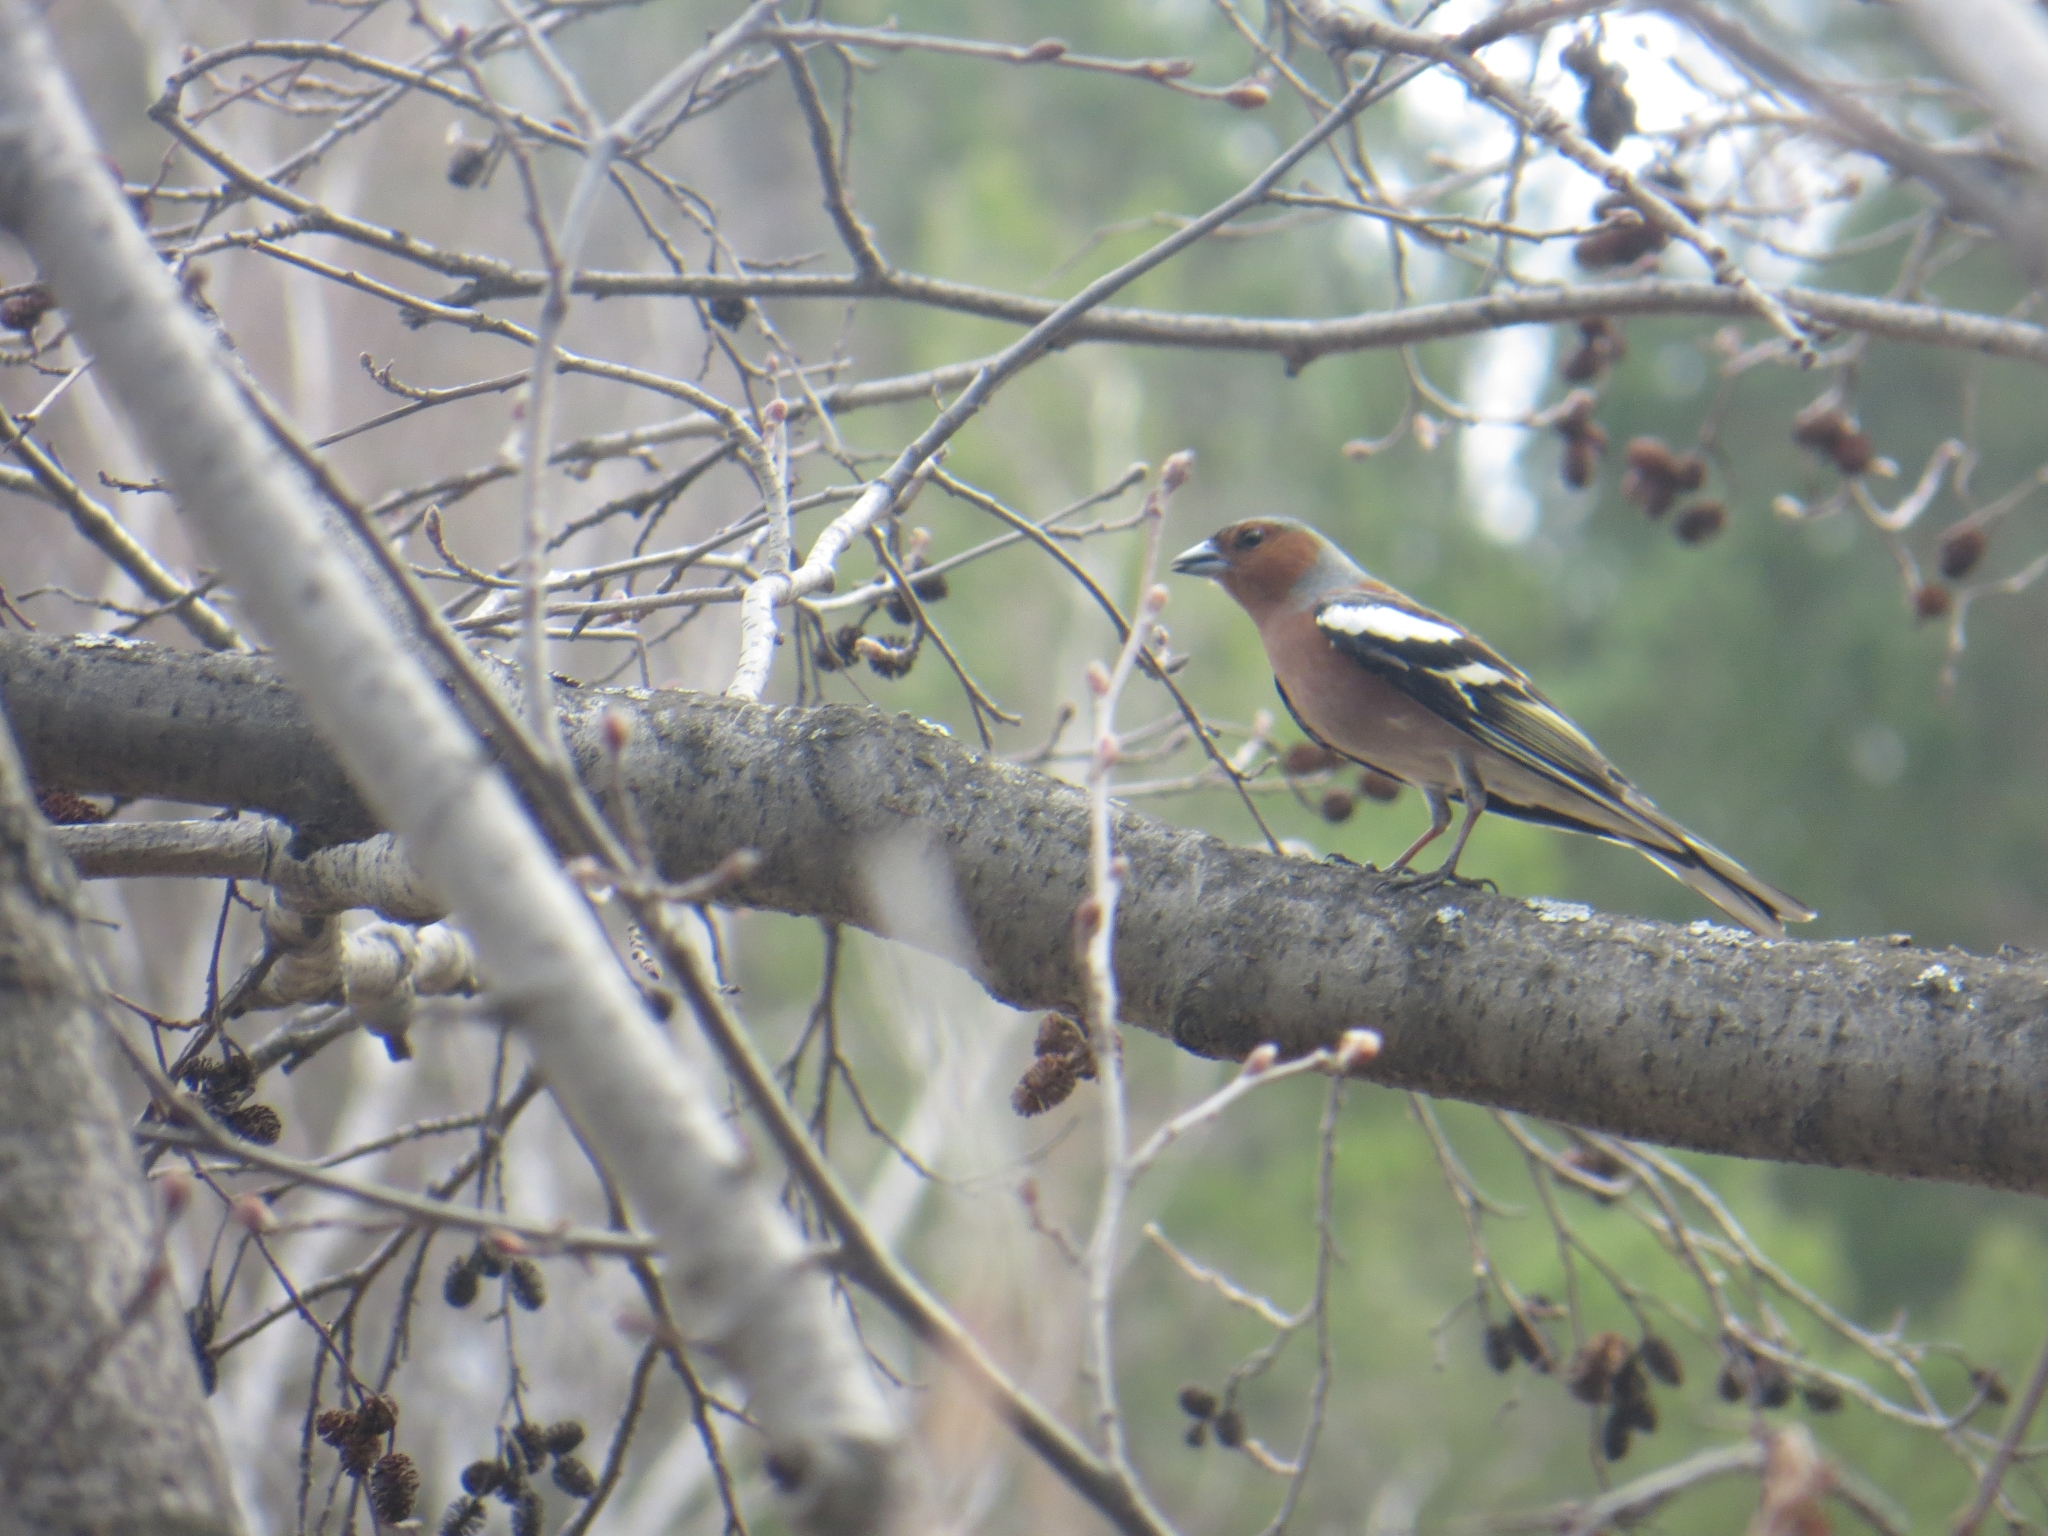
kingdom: Animalia
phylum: Chordata
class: Aves
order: Passeriformes
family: Fringillidae
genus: Fringilla
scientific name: Fringilla coelebs
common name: Common chaffinch
